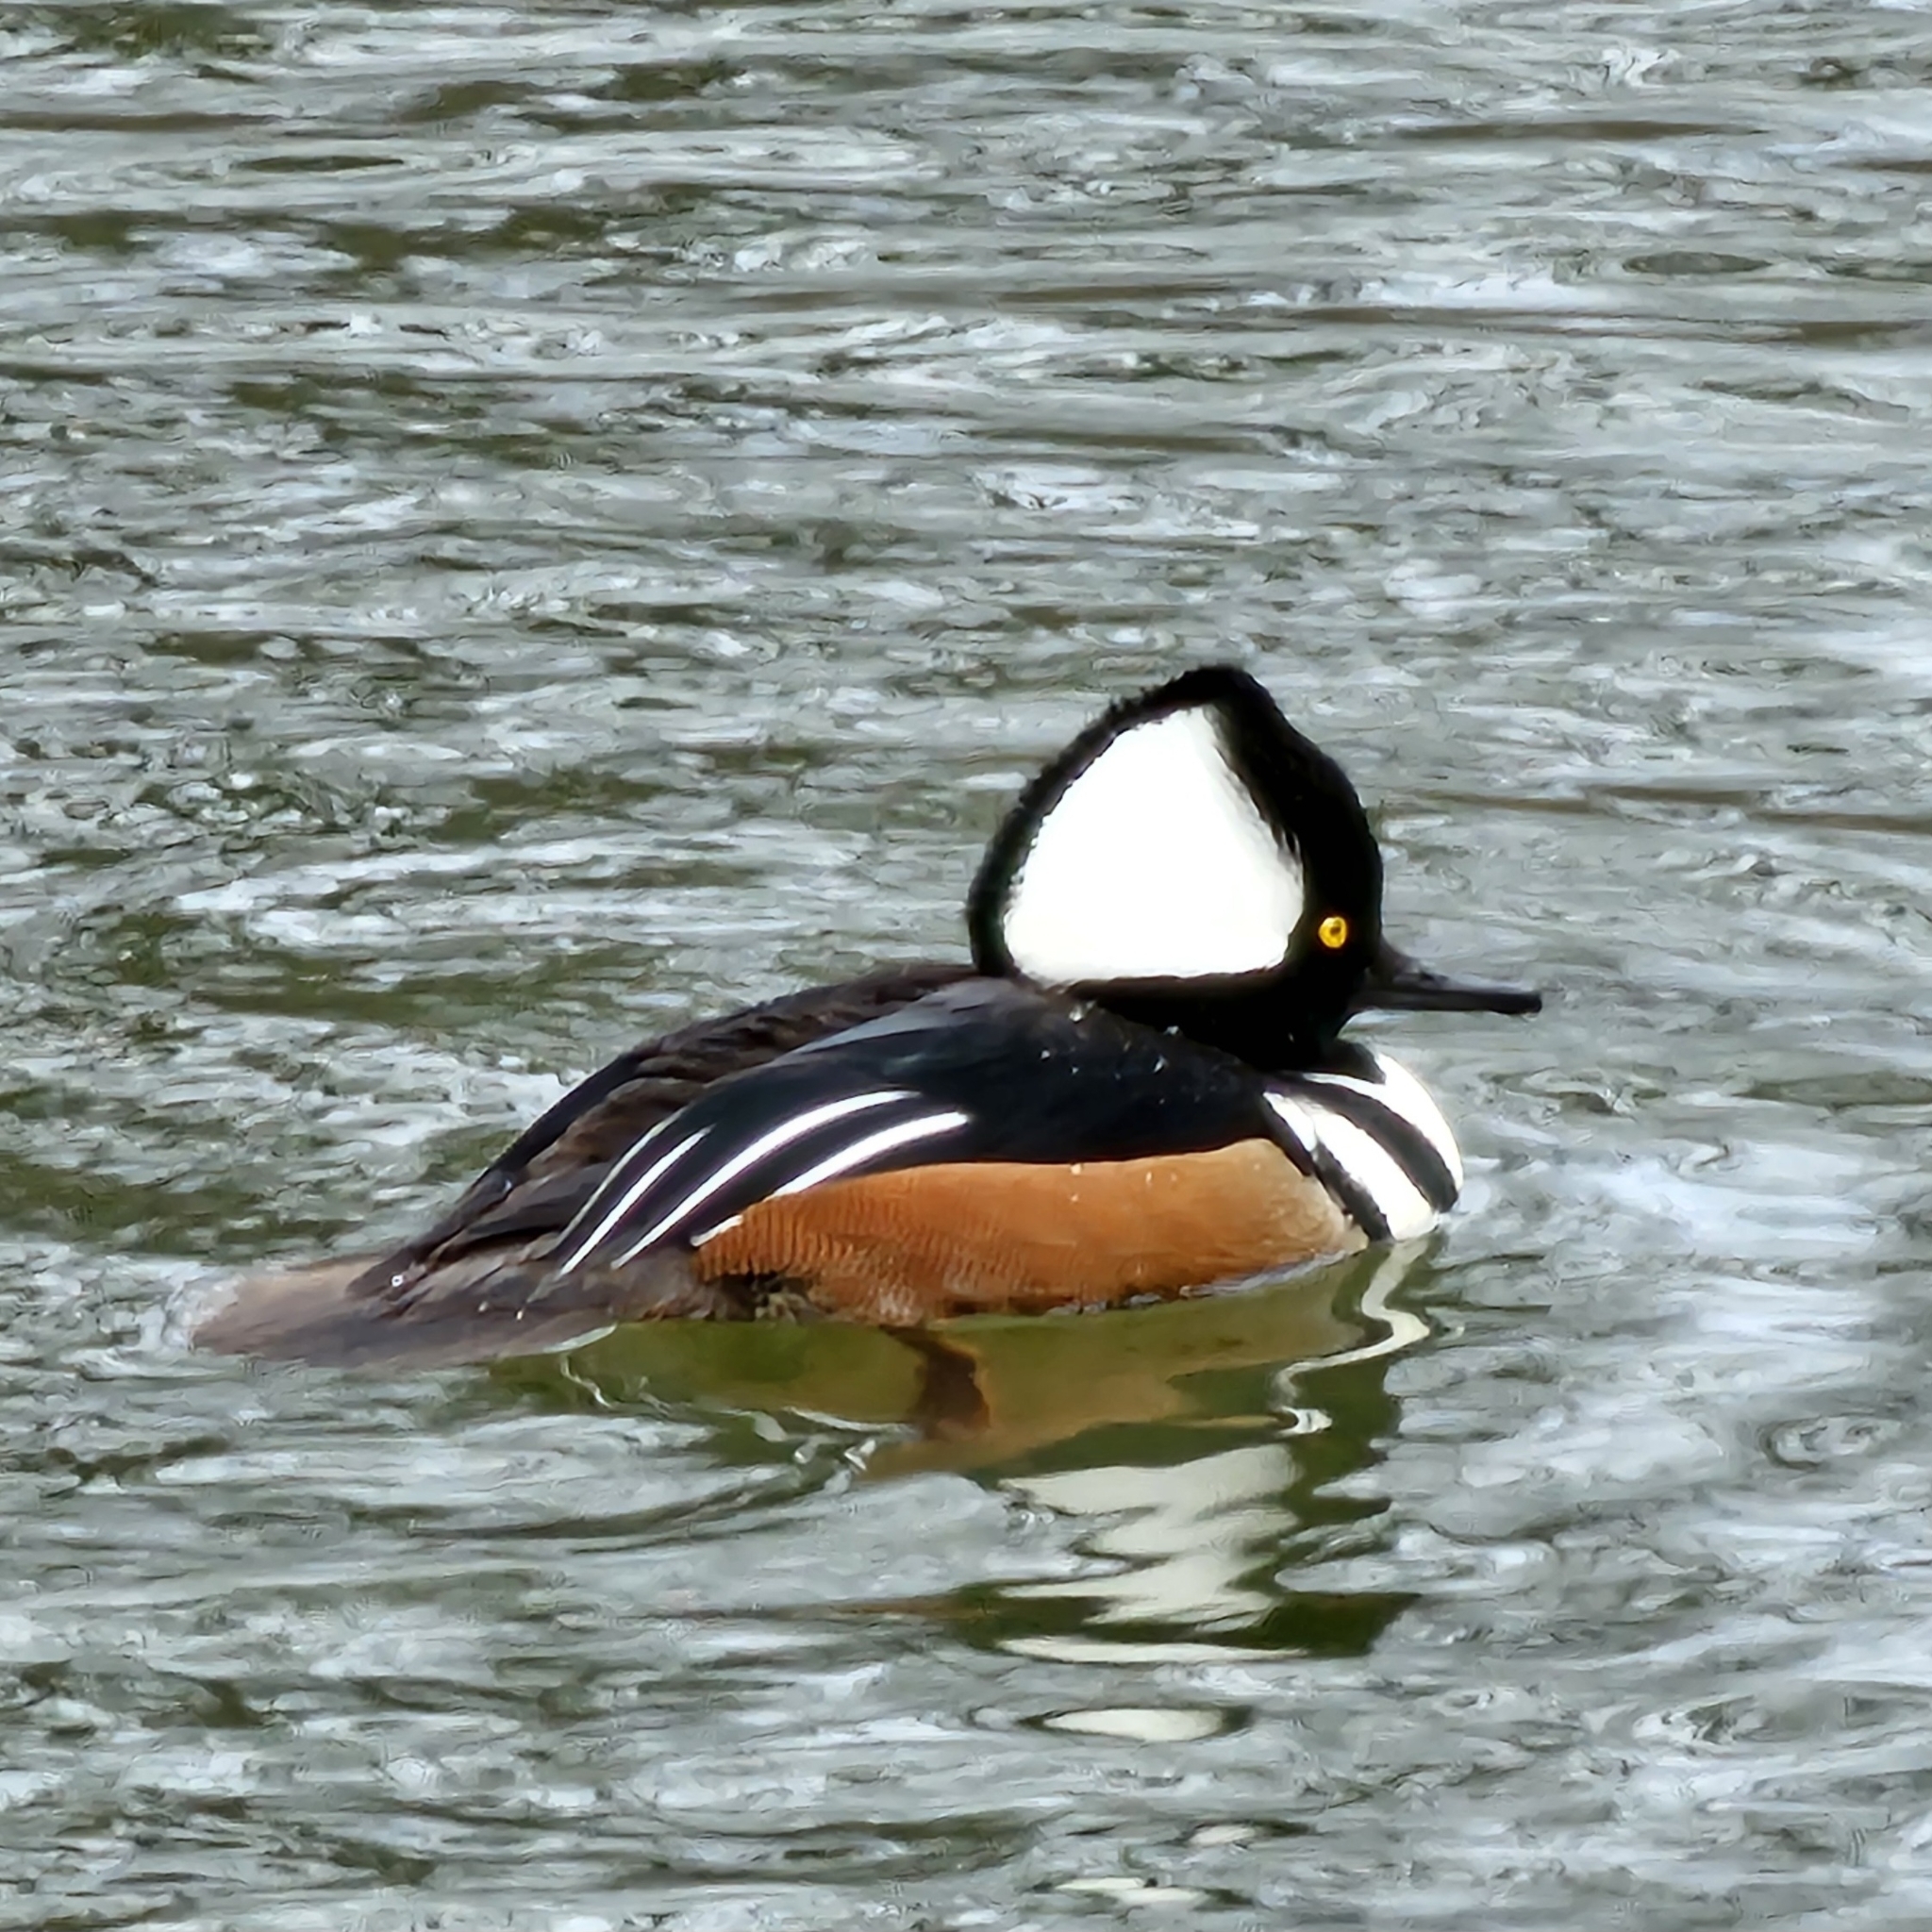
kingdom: Animalia
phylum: Chordata
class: Aves
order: Anseriformes
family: Anatidae
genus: Lophodytes
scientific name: Lophodytes cucullatus
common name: Hooded merganser
